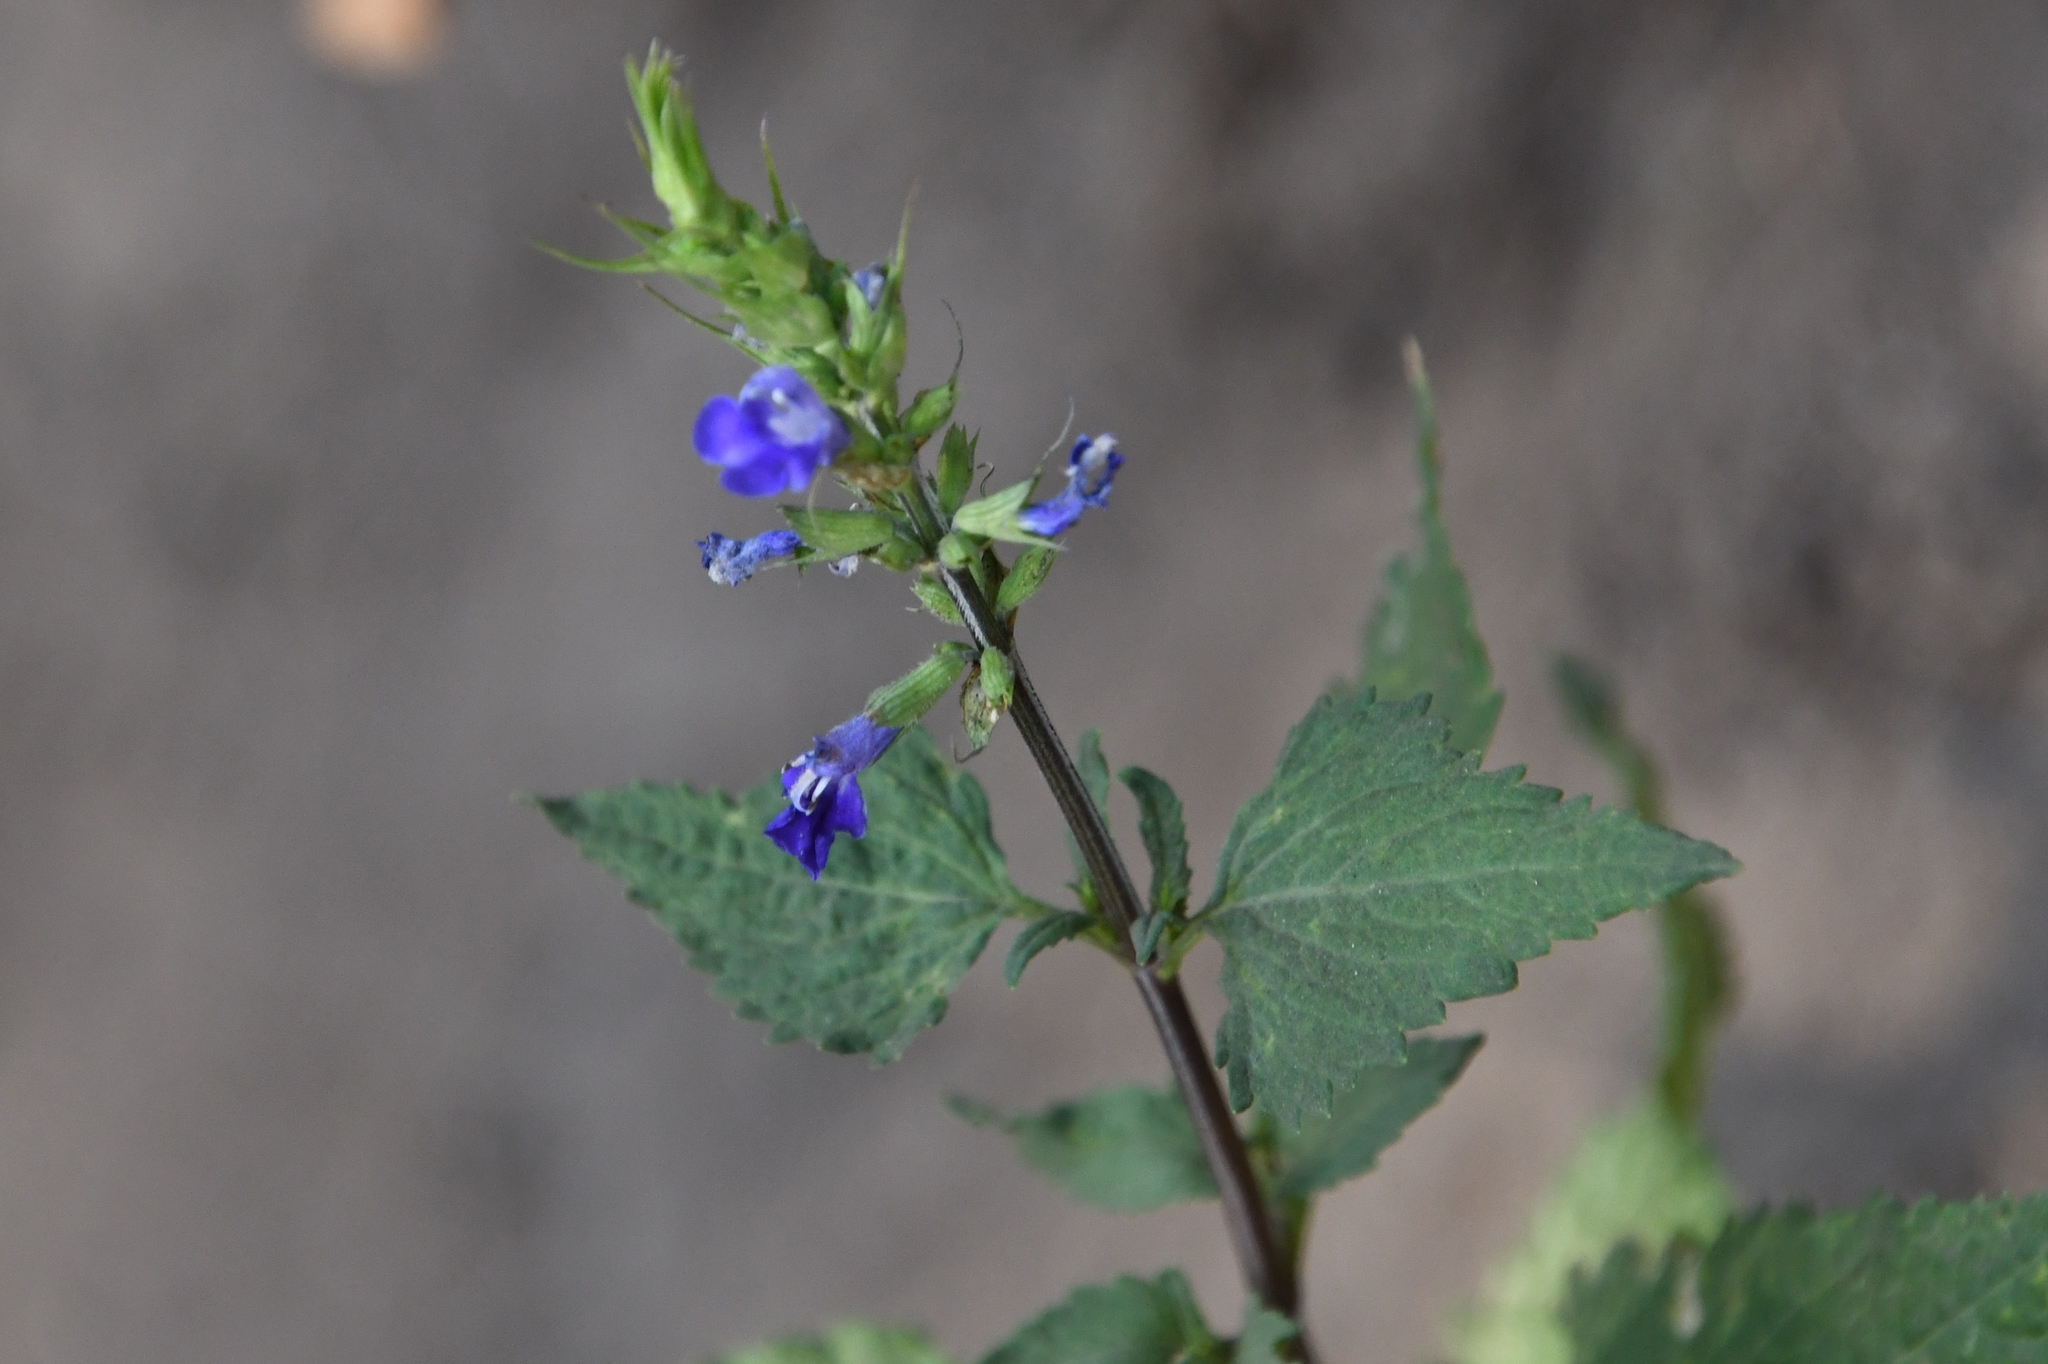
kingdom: Plantae
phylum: Tracheophyta
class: Magnoliopsida
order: Lamiales
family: Lamiaceae
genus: Salvia
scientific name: Salvia arizonica
